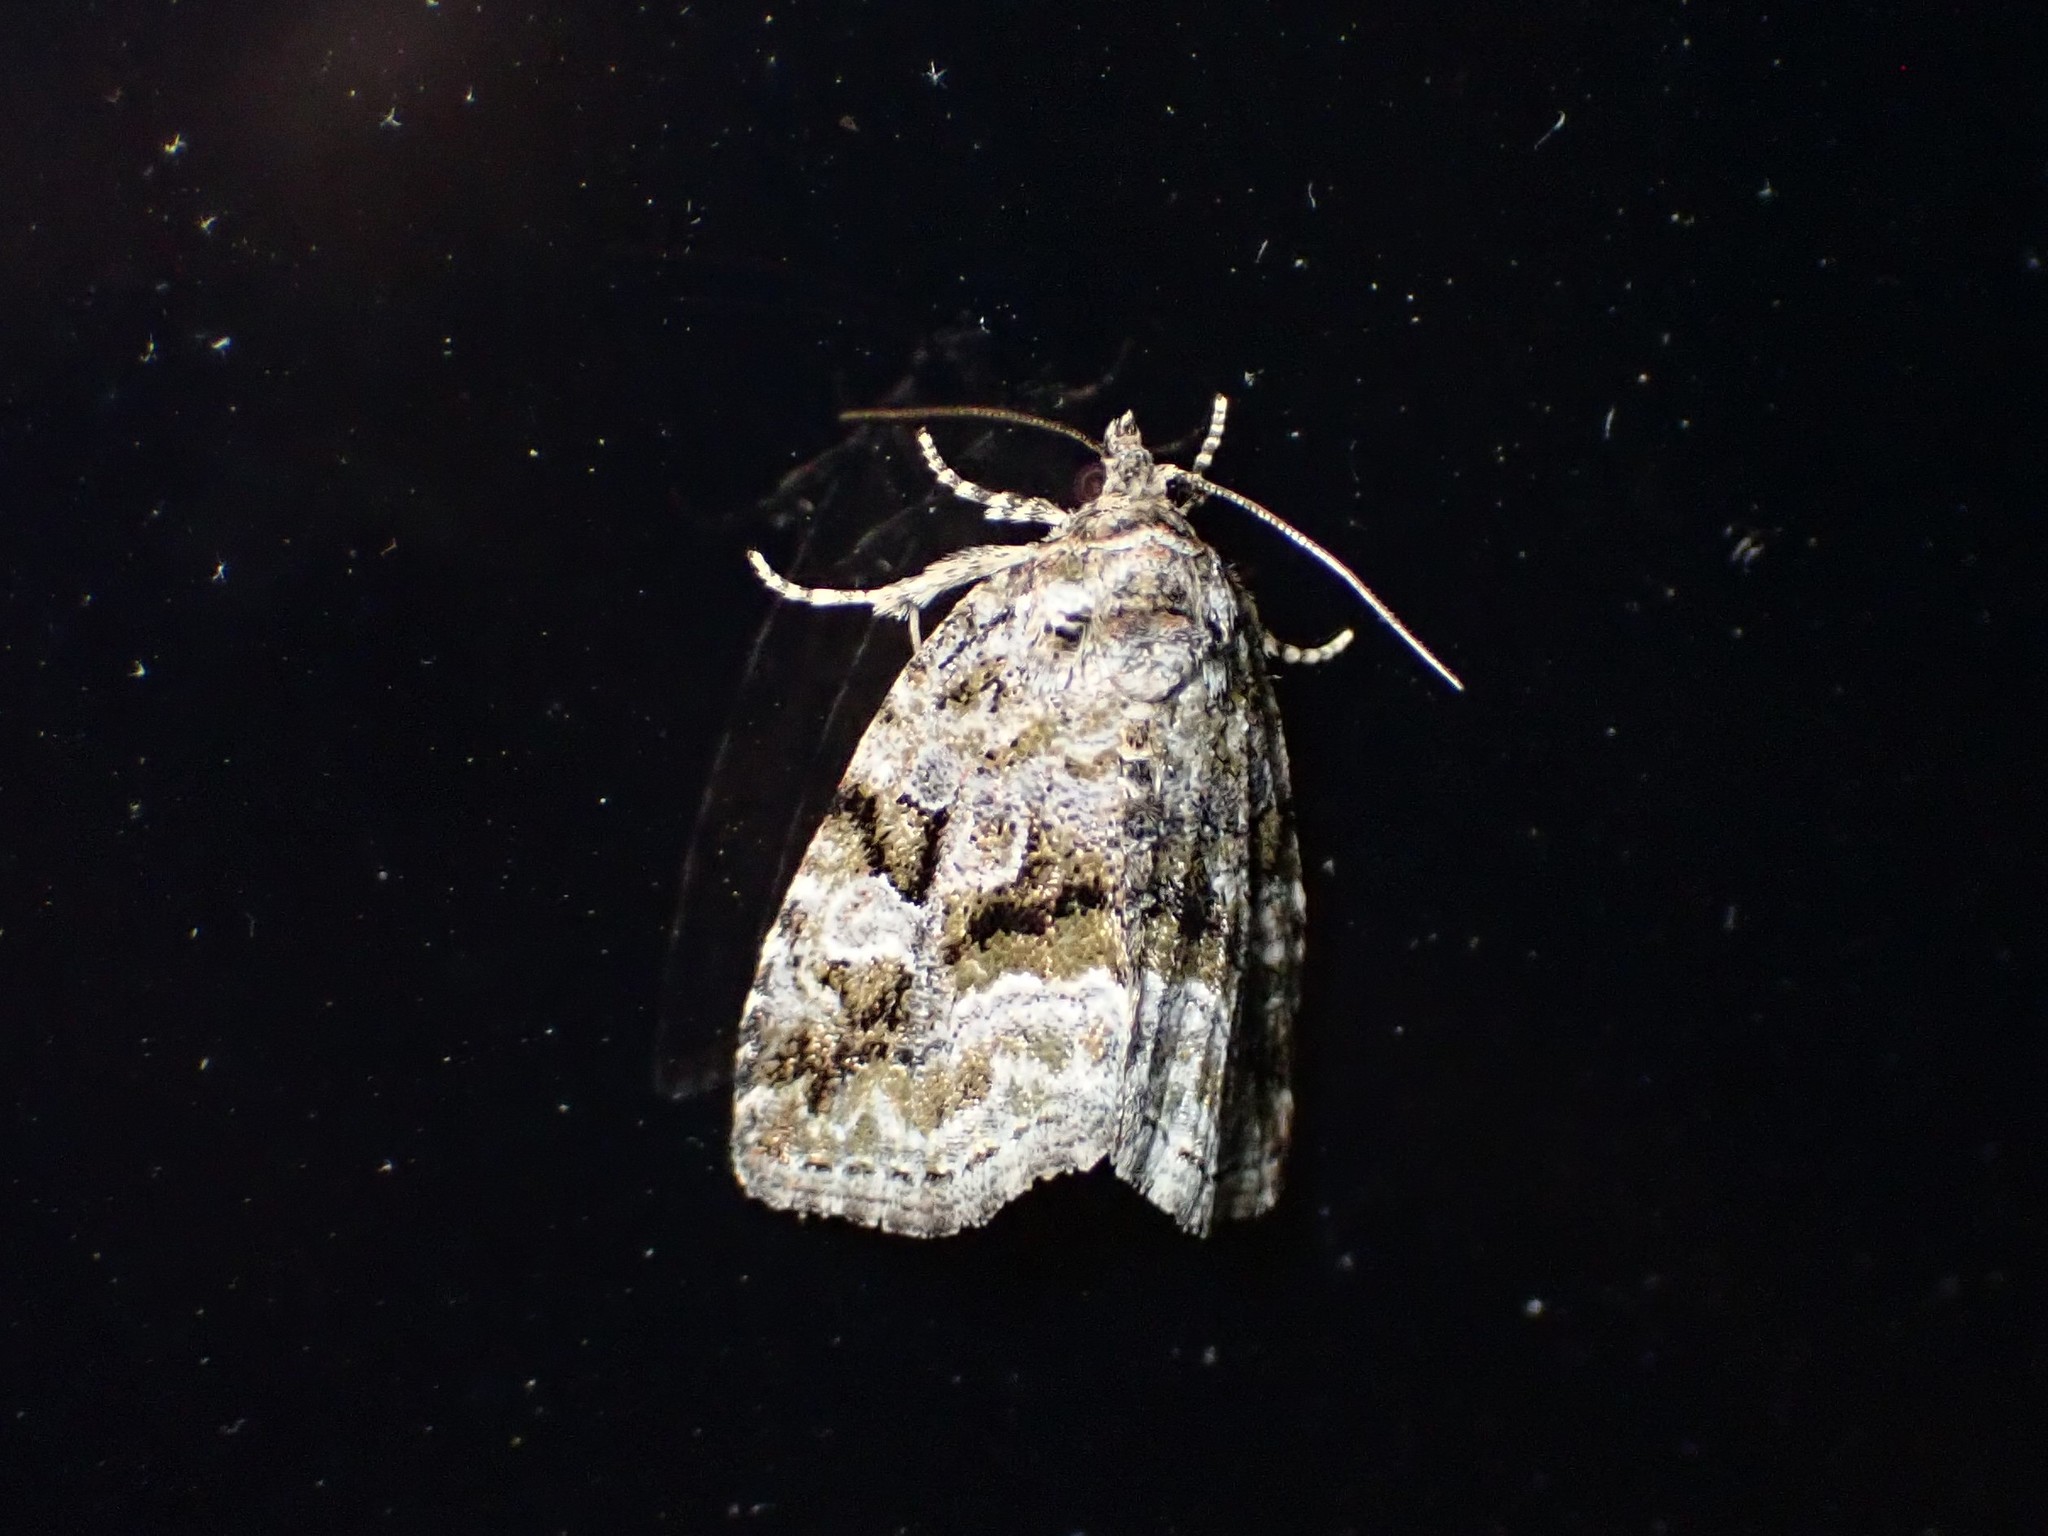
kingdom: Animalia
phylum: Arthropoda
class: Insecta
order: Lepidoptera
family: Noctuidae
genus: Protodeltote
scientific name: Protodeltote muscosula
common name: Large mossy glyph
